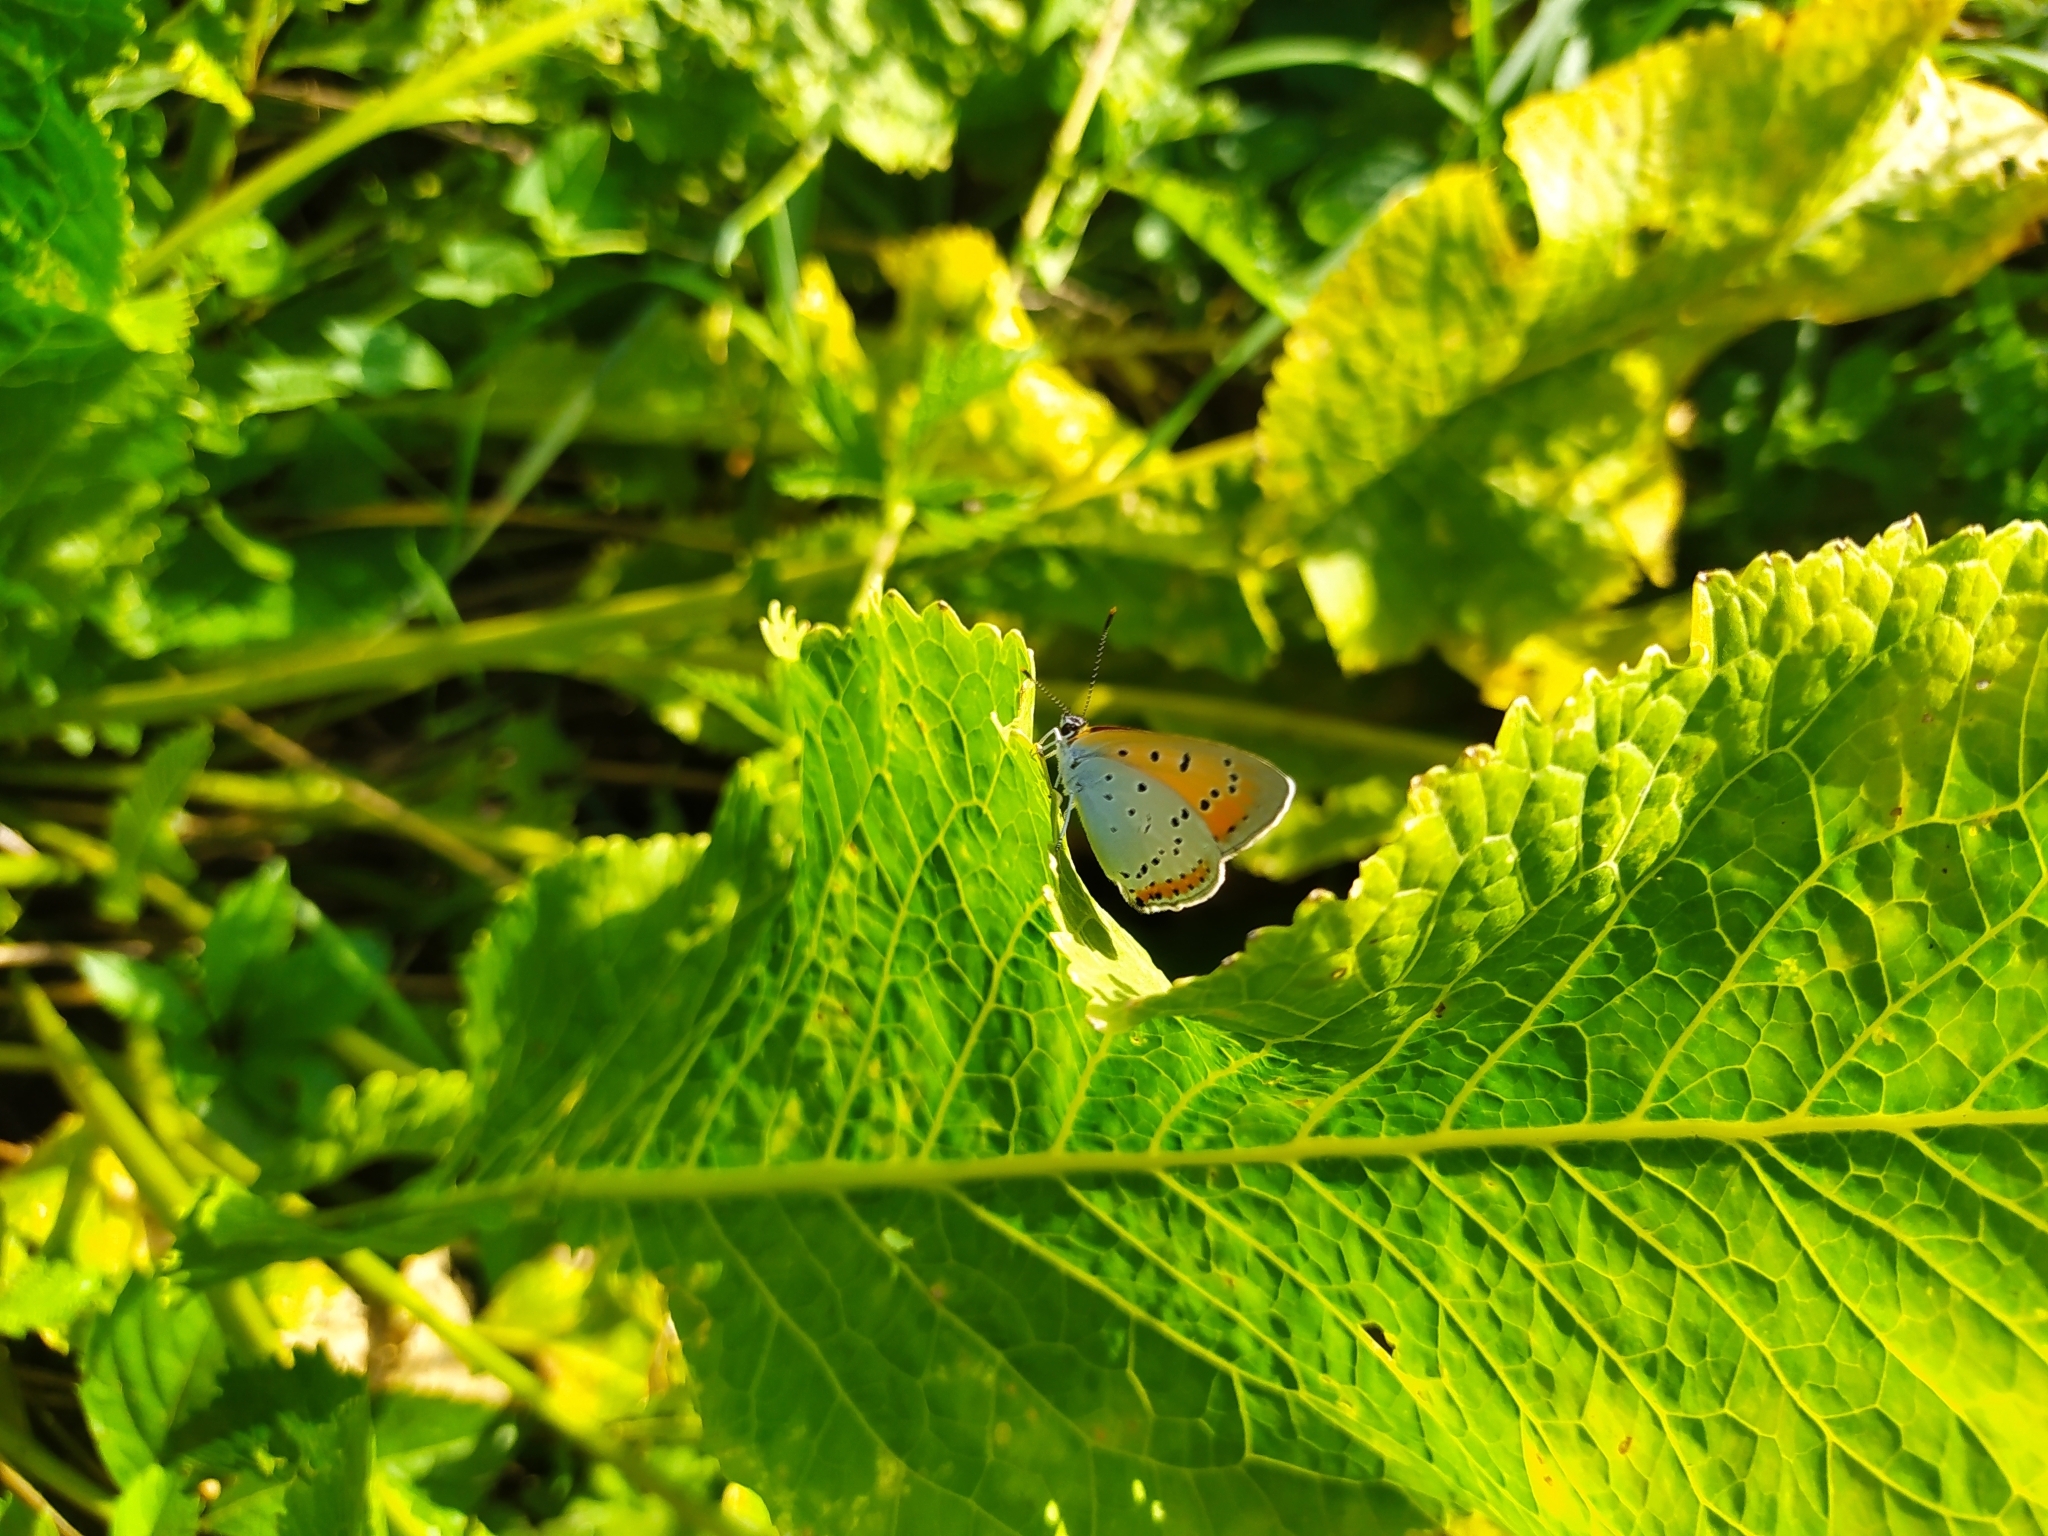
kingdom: Animalia
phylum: Arthropoda
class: Insecta
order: Lepidoptera
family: Lycaenidae
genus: Lycaena
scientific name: Lycaena dispar
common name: Large copper
